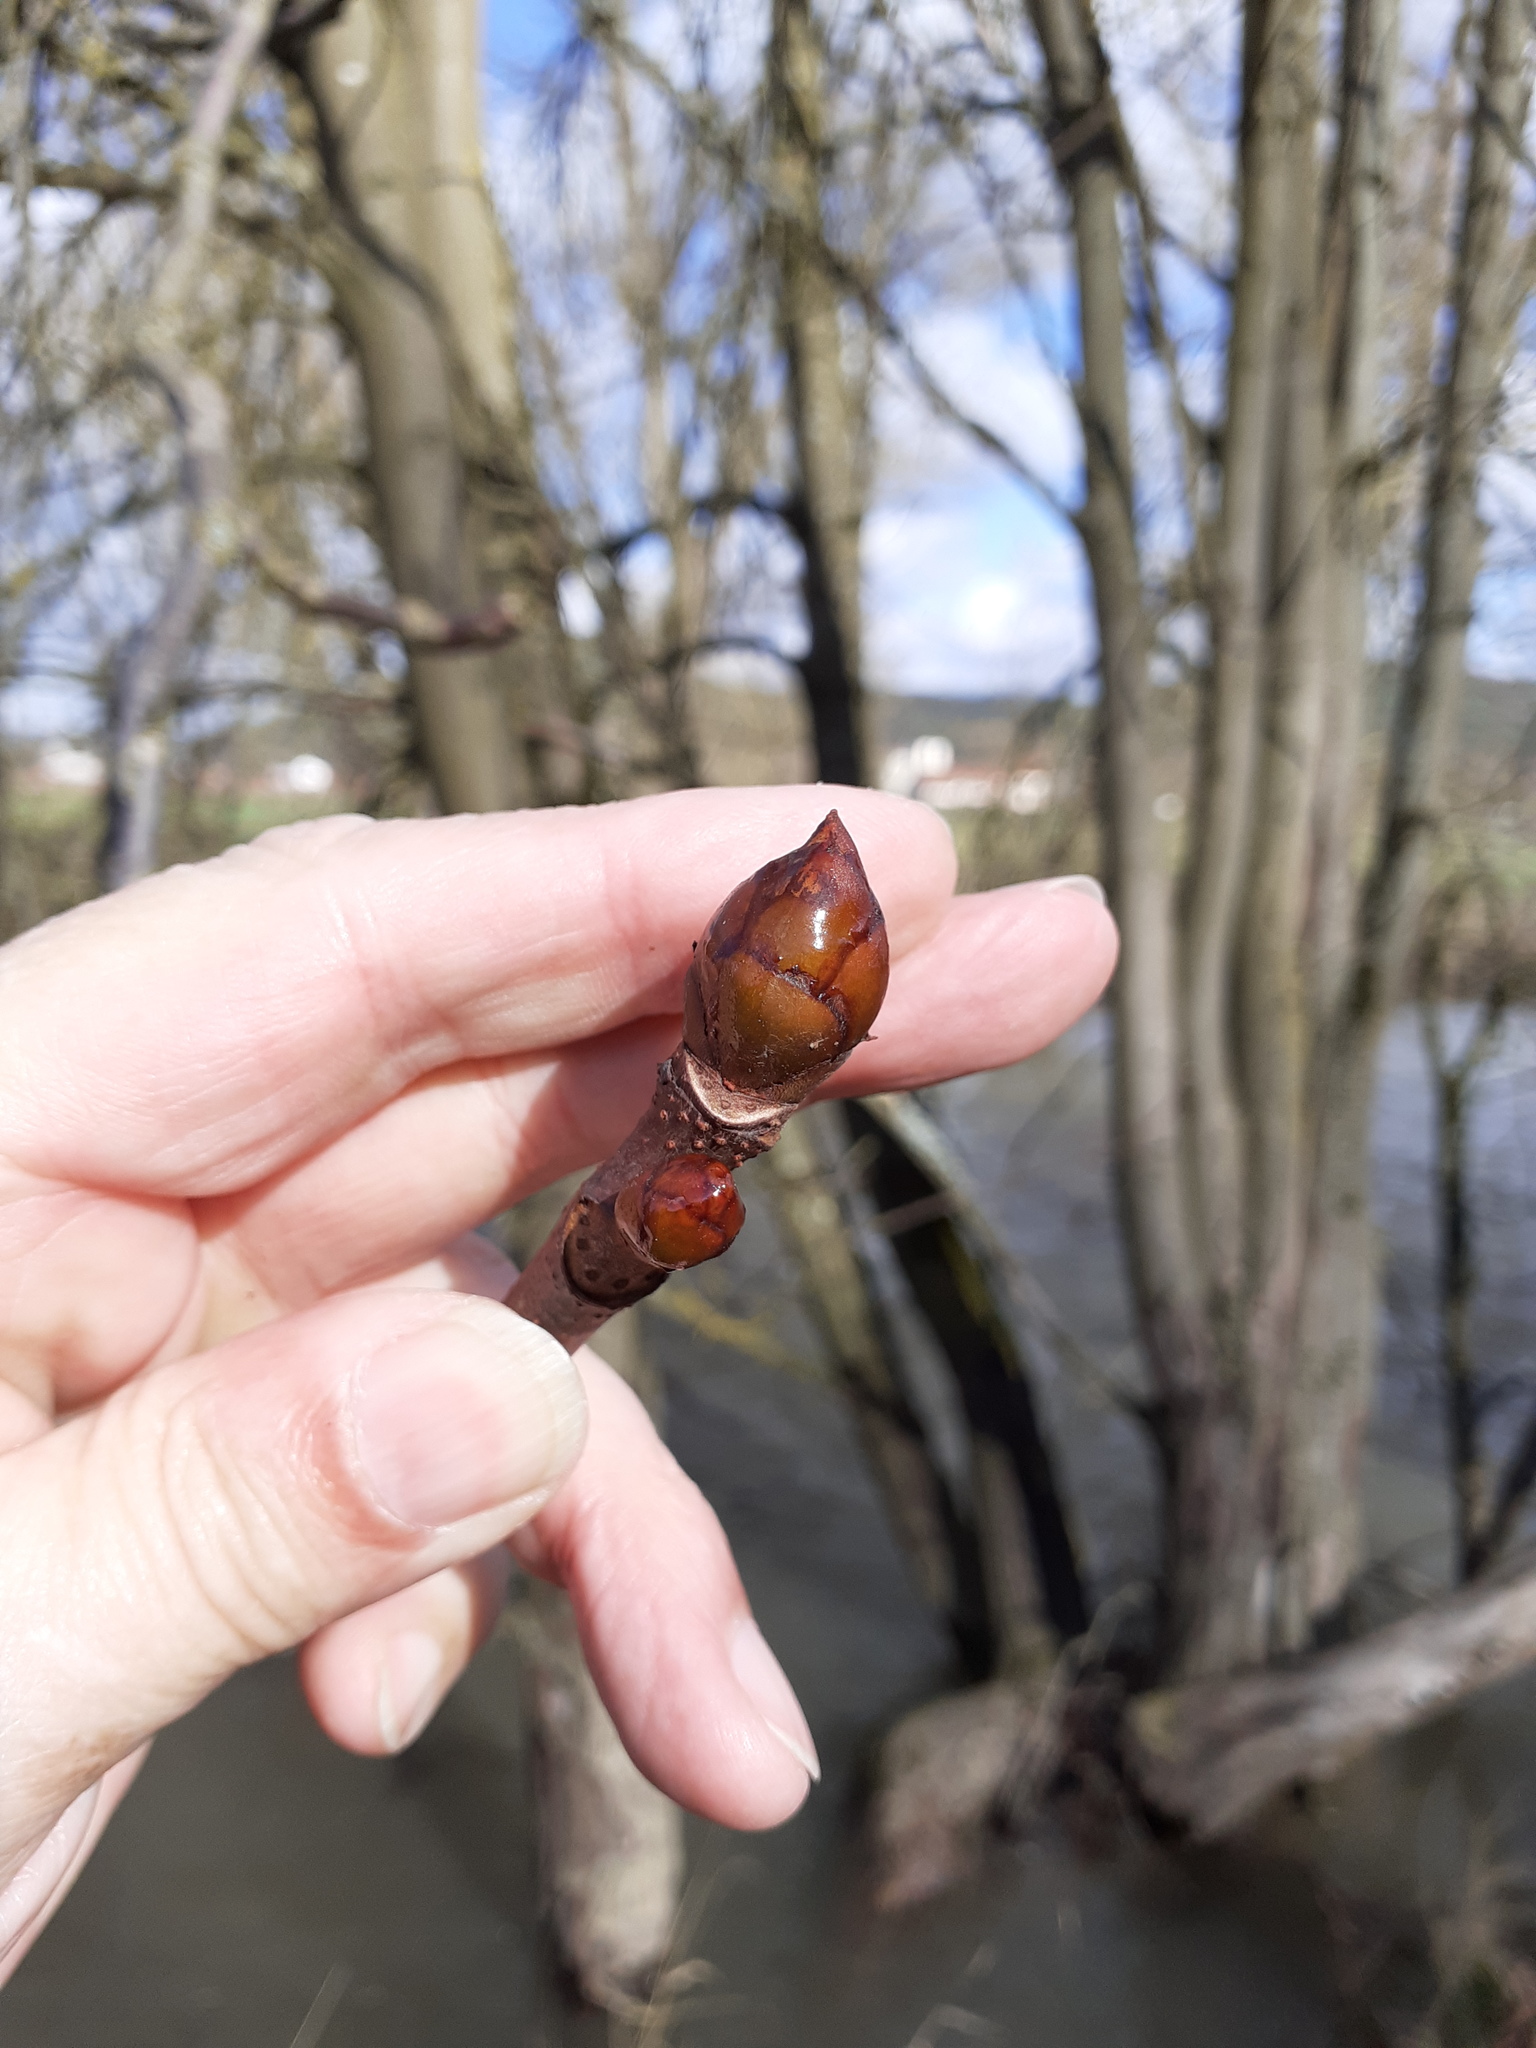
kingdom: Plantae
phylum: Tracheophyta
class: Magnoliopsida
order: Sapindales
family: Sapindaceae
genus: Aesculus
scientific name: Aesculus hippocastanum
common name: Horse-chestnut
